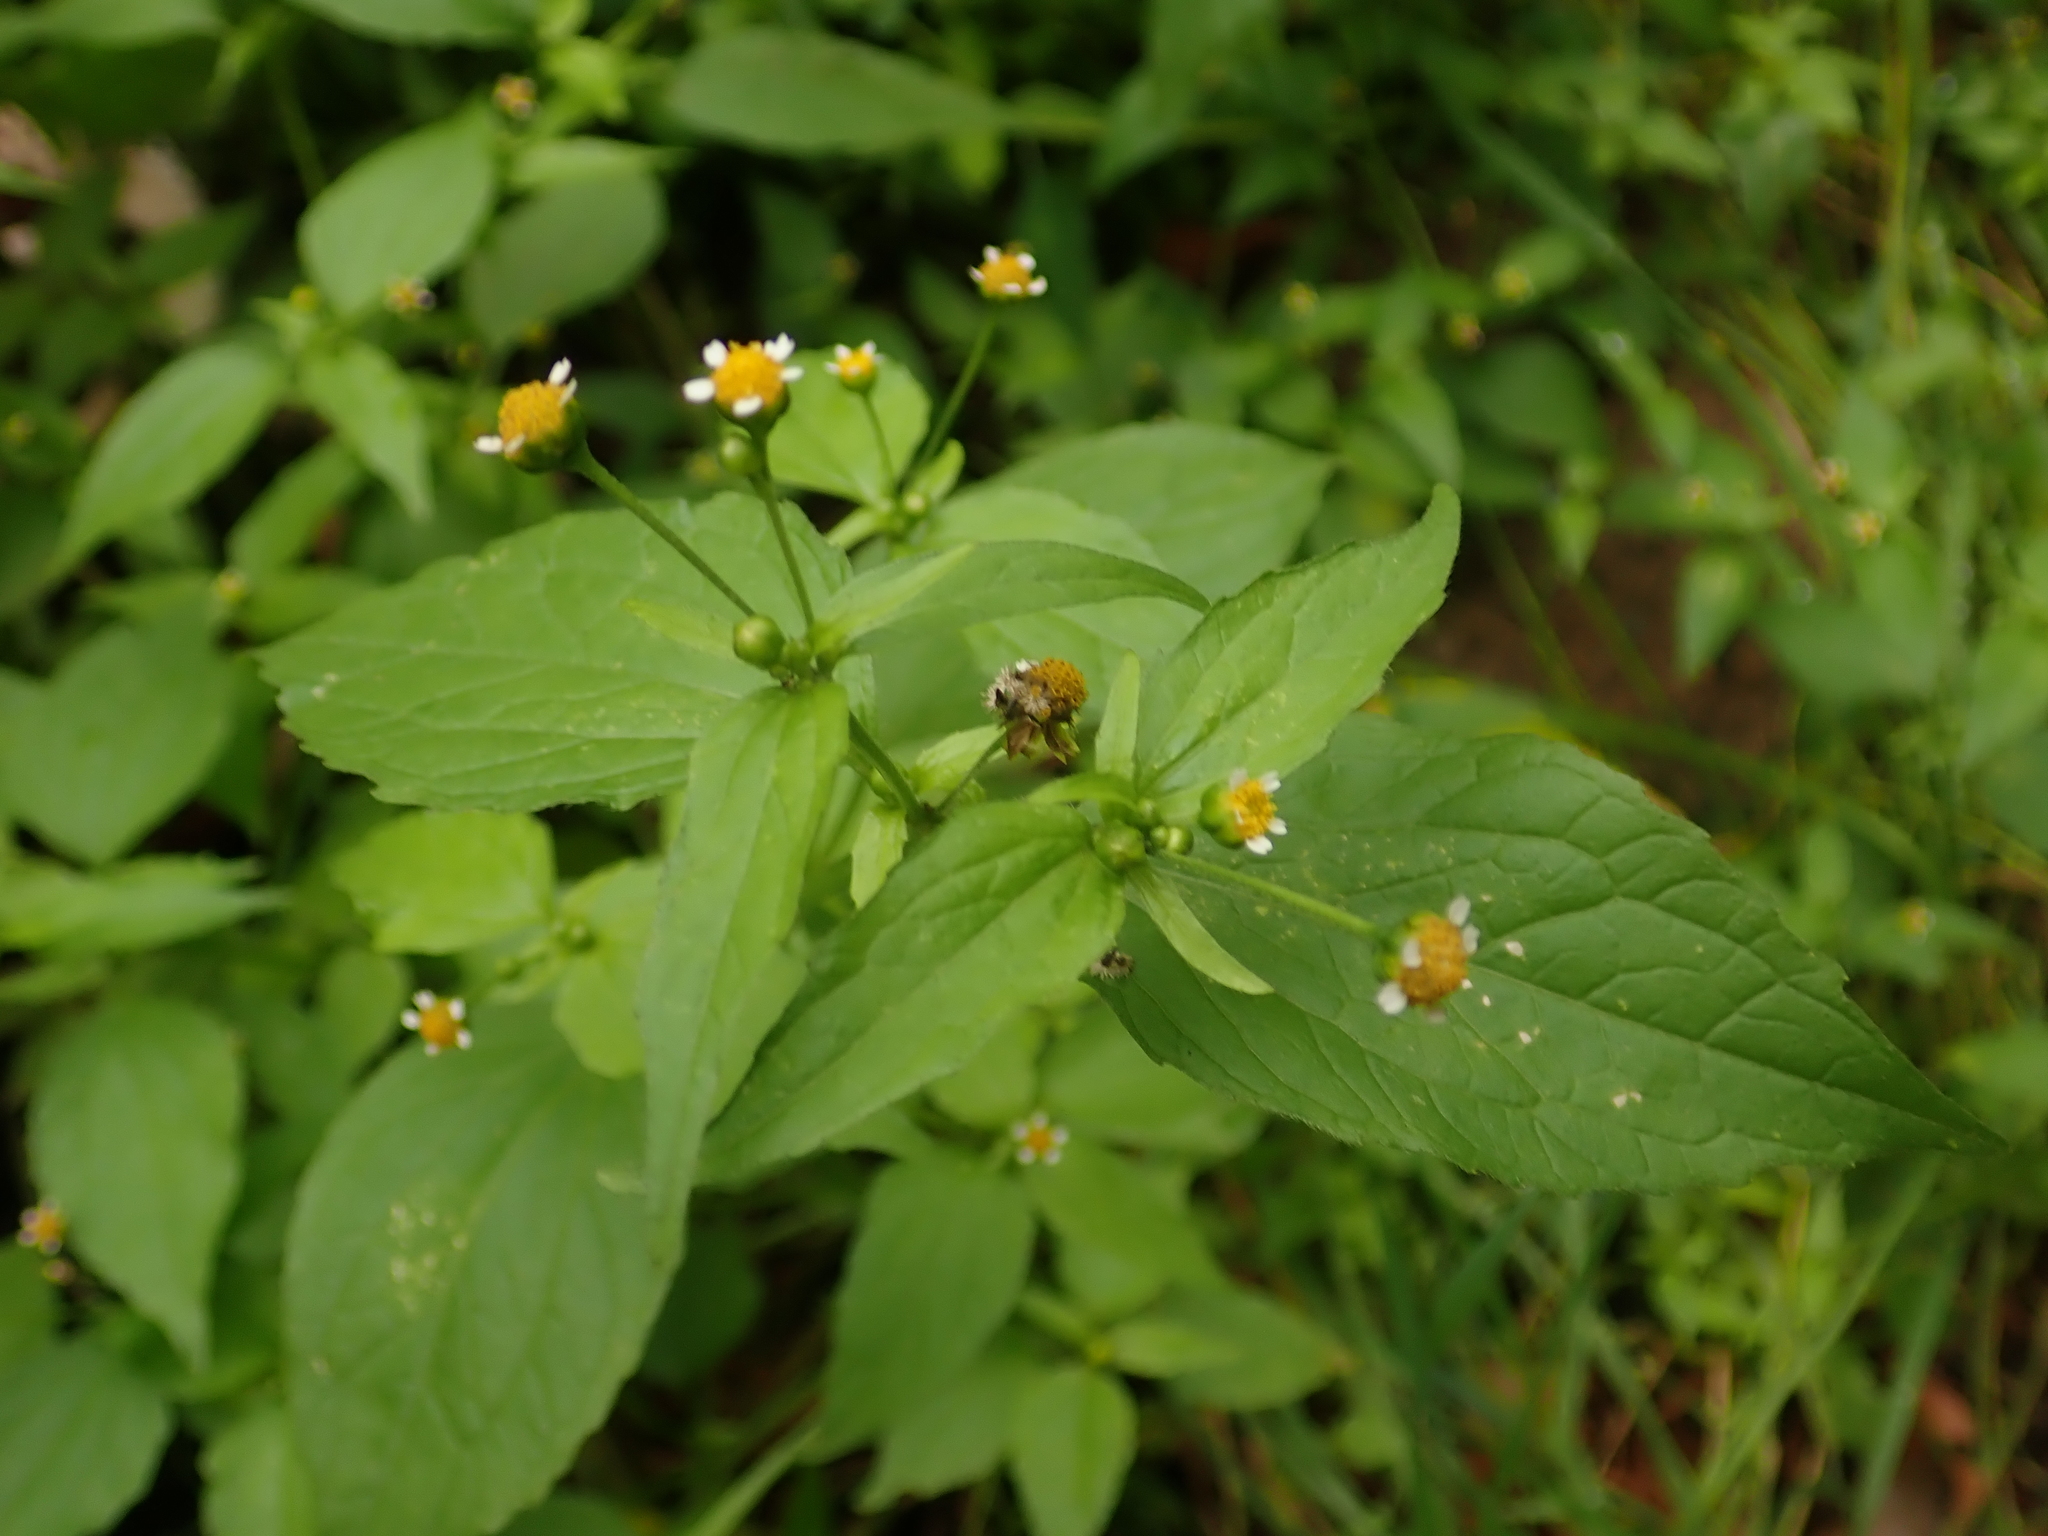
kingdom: Plantae
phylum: Tracheophyta
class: Magnoliopsida
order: Asterales
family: Asteraceae
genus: Galinsoga
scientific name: Galinsoga parviflora
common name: Gallant soldier
